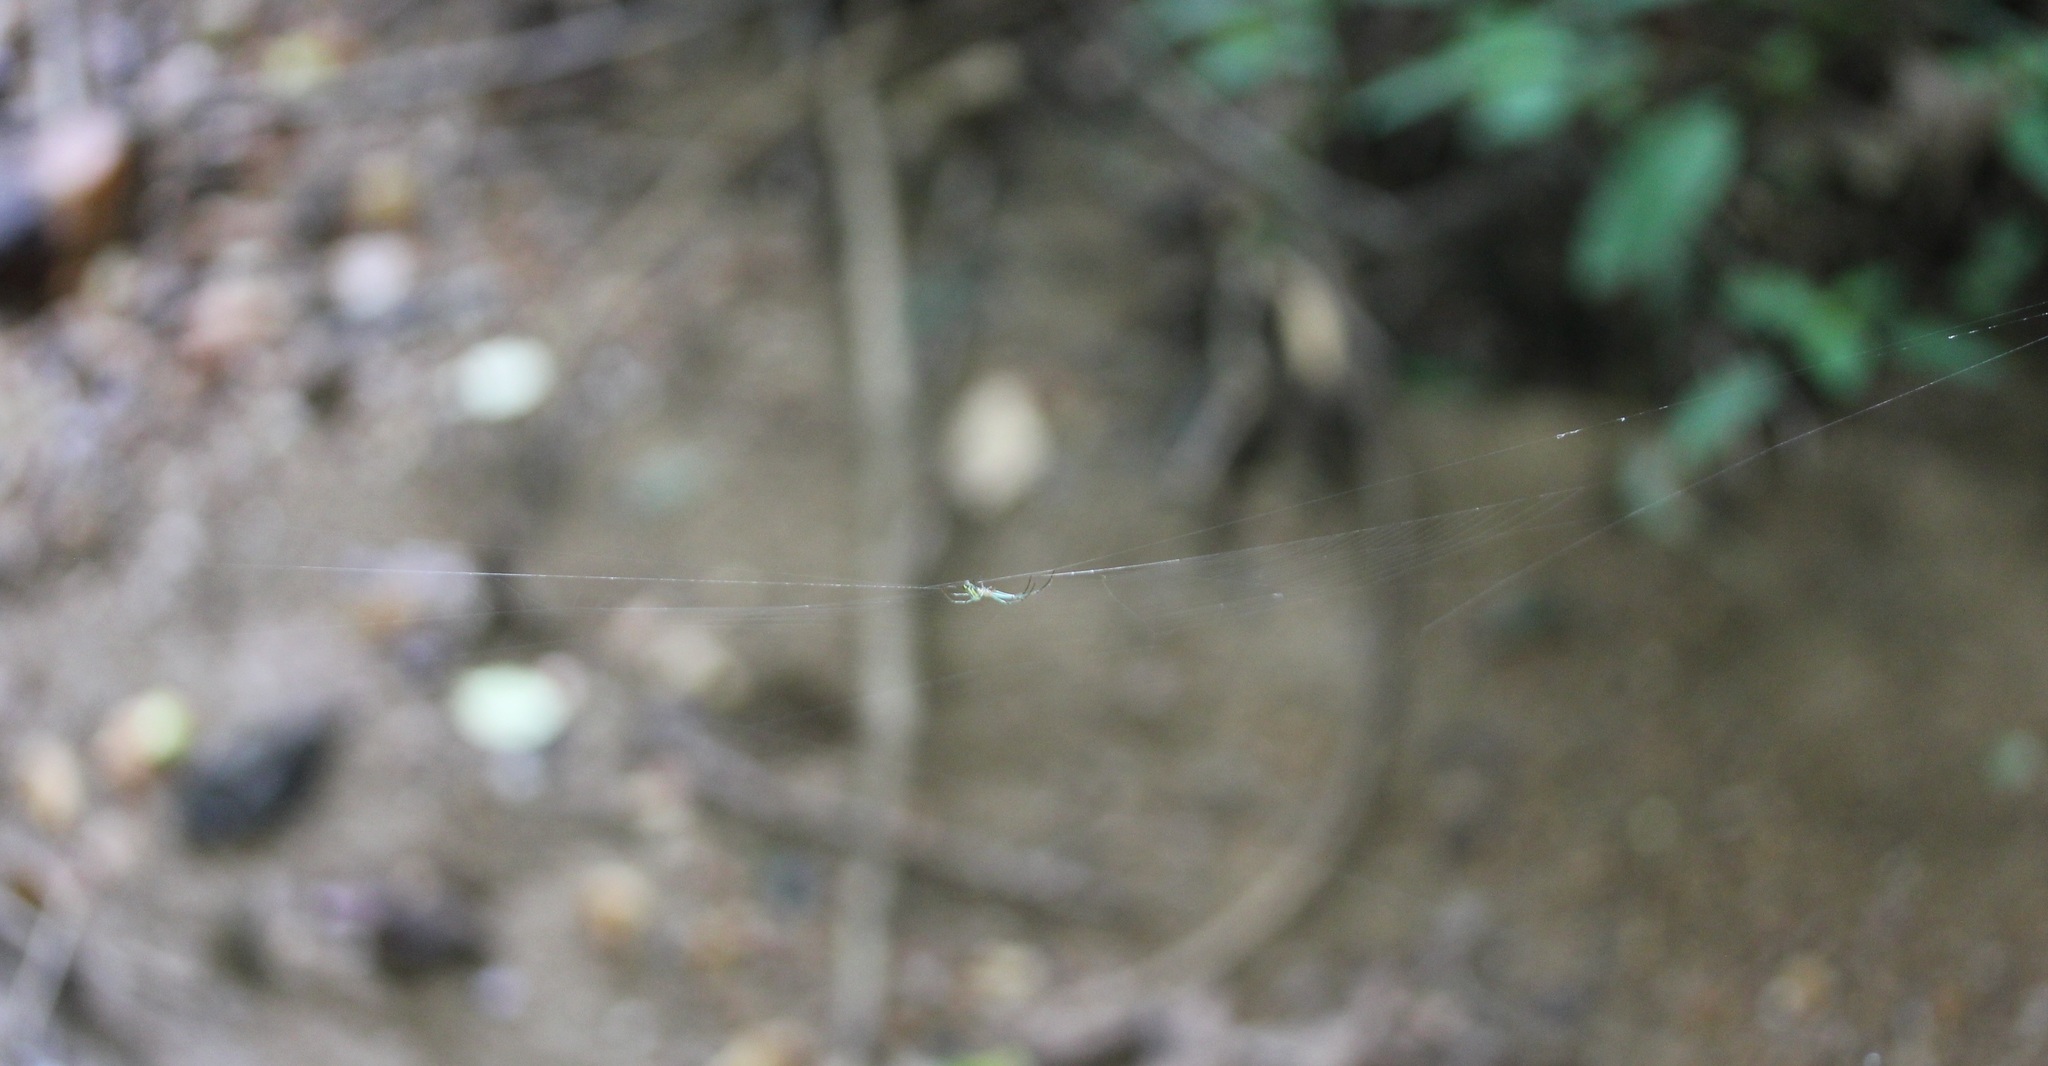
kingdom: Animalia
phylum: Arthropoda
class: Arachnida
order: Araneae
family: Tetragnathidae
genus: Leucauge
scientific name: Leucauge venusta
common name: Longjawed orb weavers
